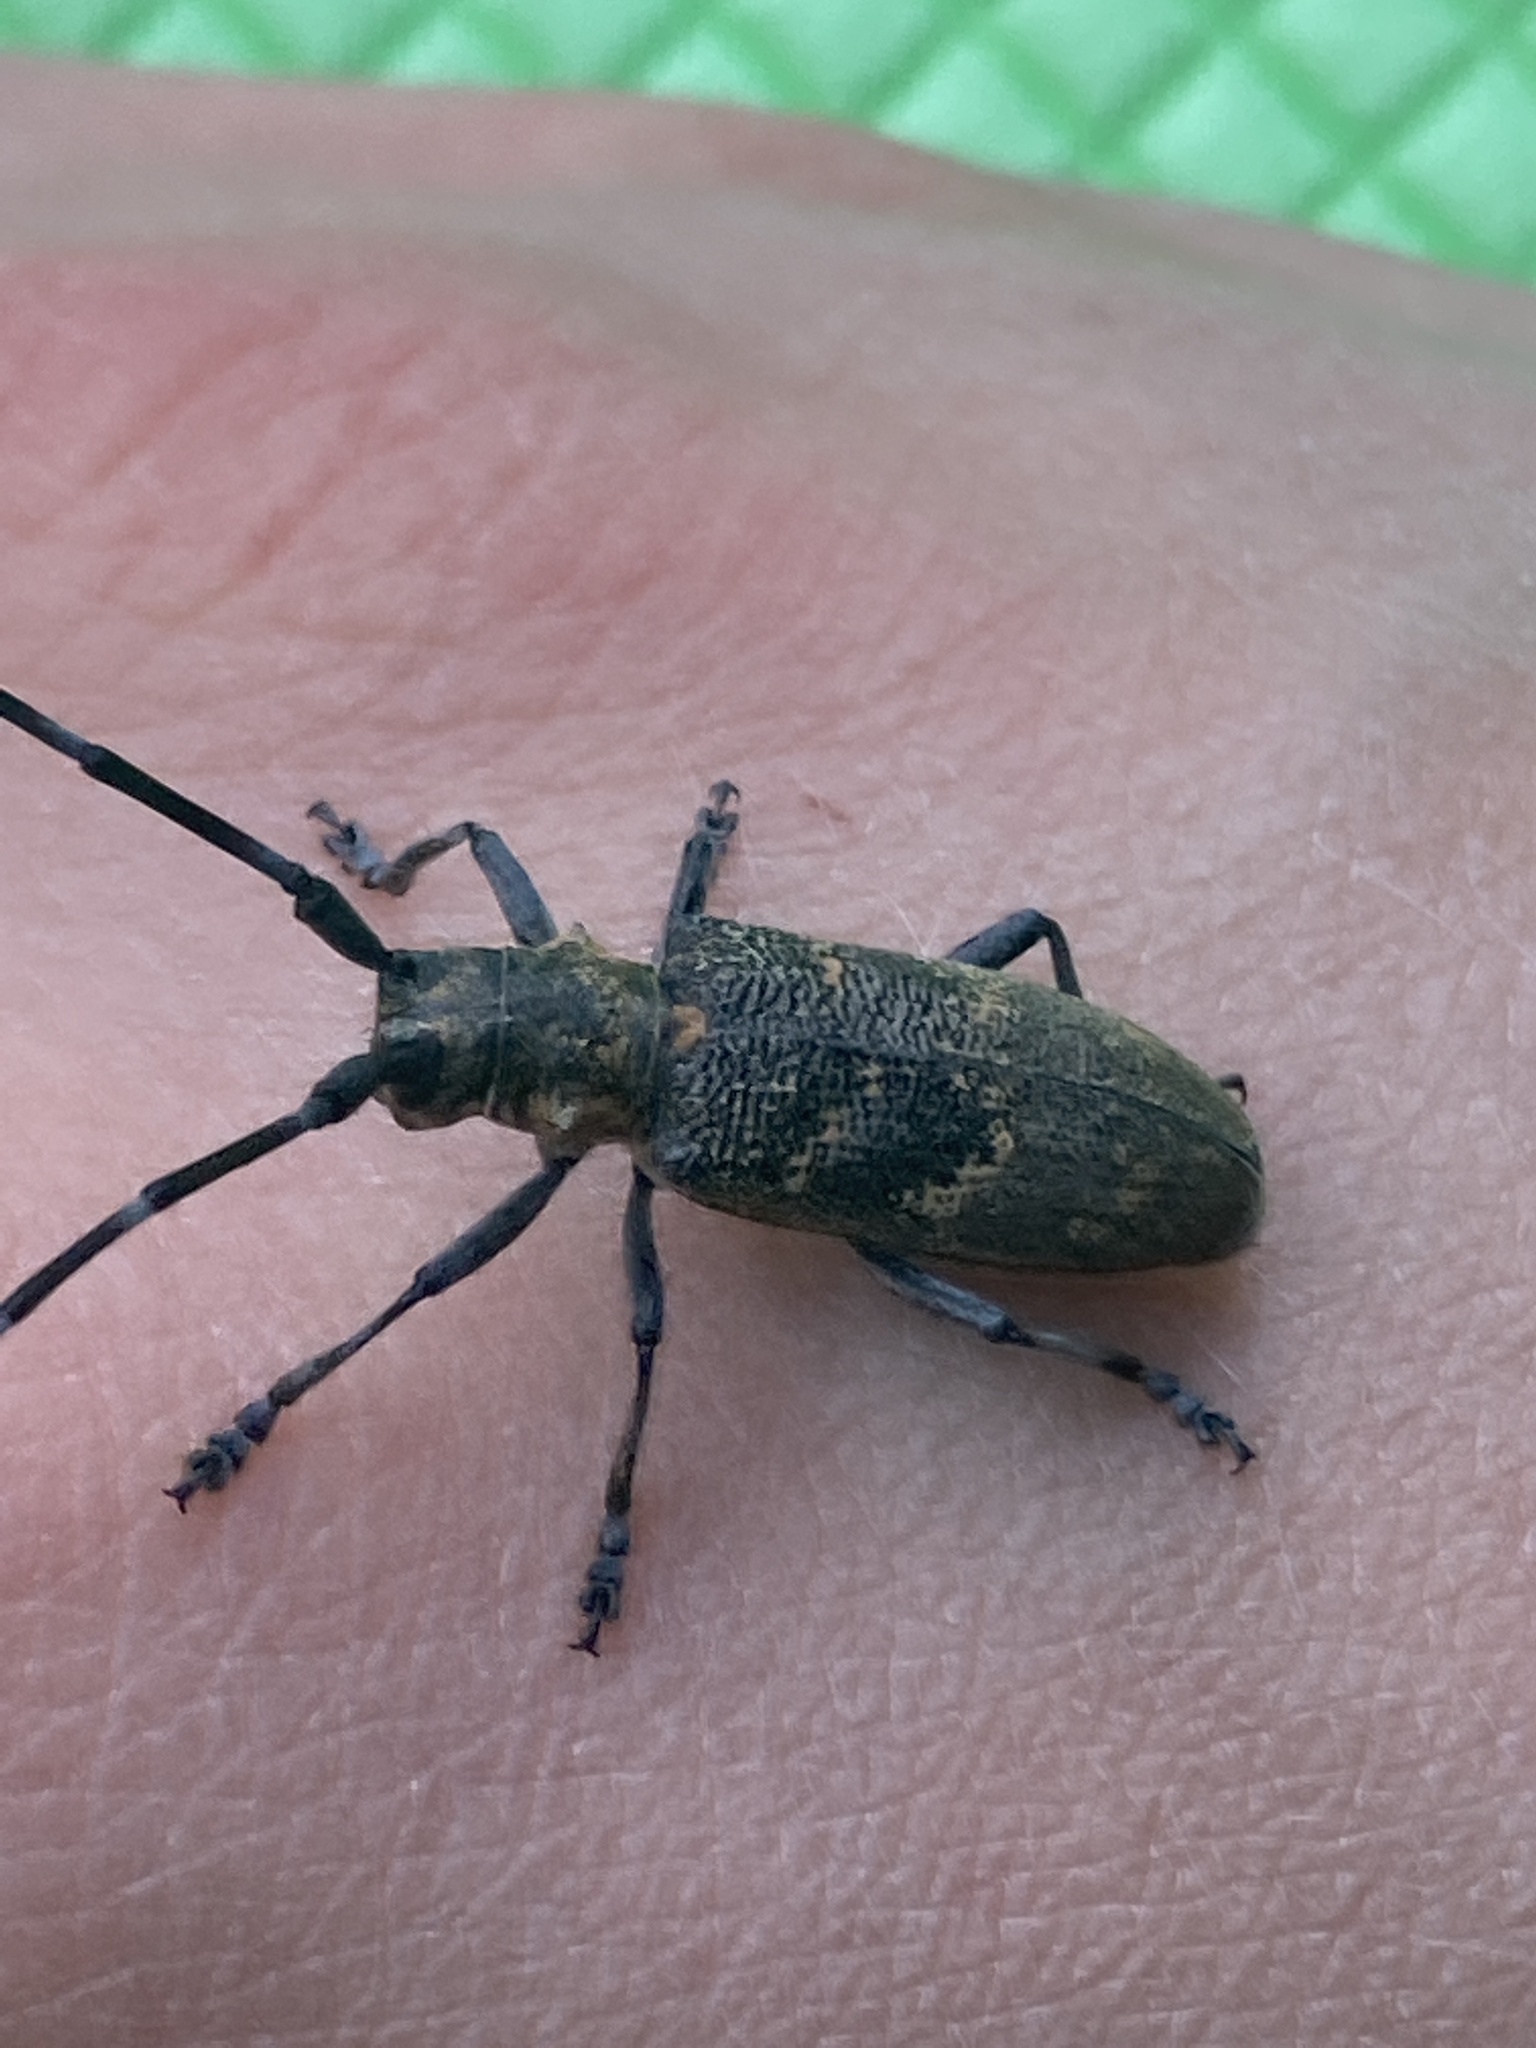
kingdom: Animalia
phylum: Arthropoda
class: Insecta
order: Coleoptera
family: Cerambycidae
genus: Monochamus
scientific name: Monochamus galloprovincialis
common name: Pine sawyer
